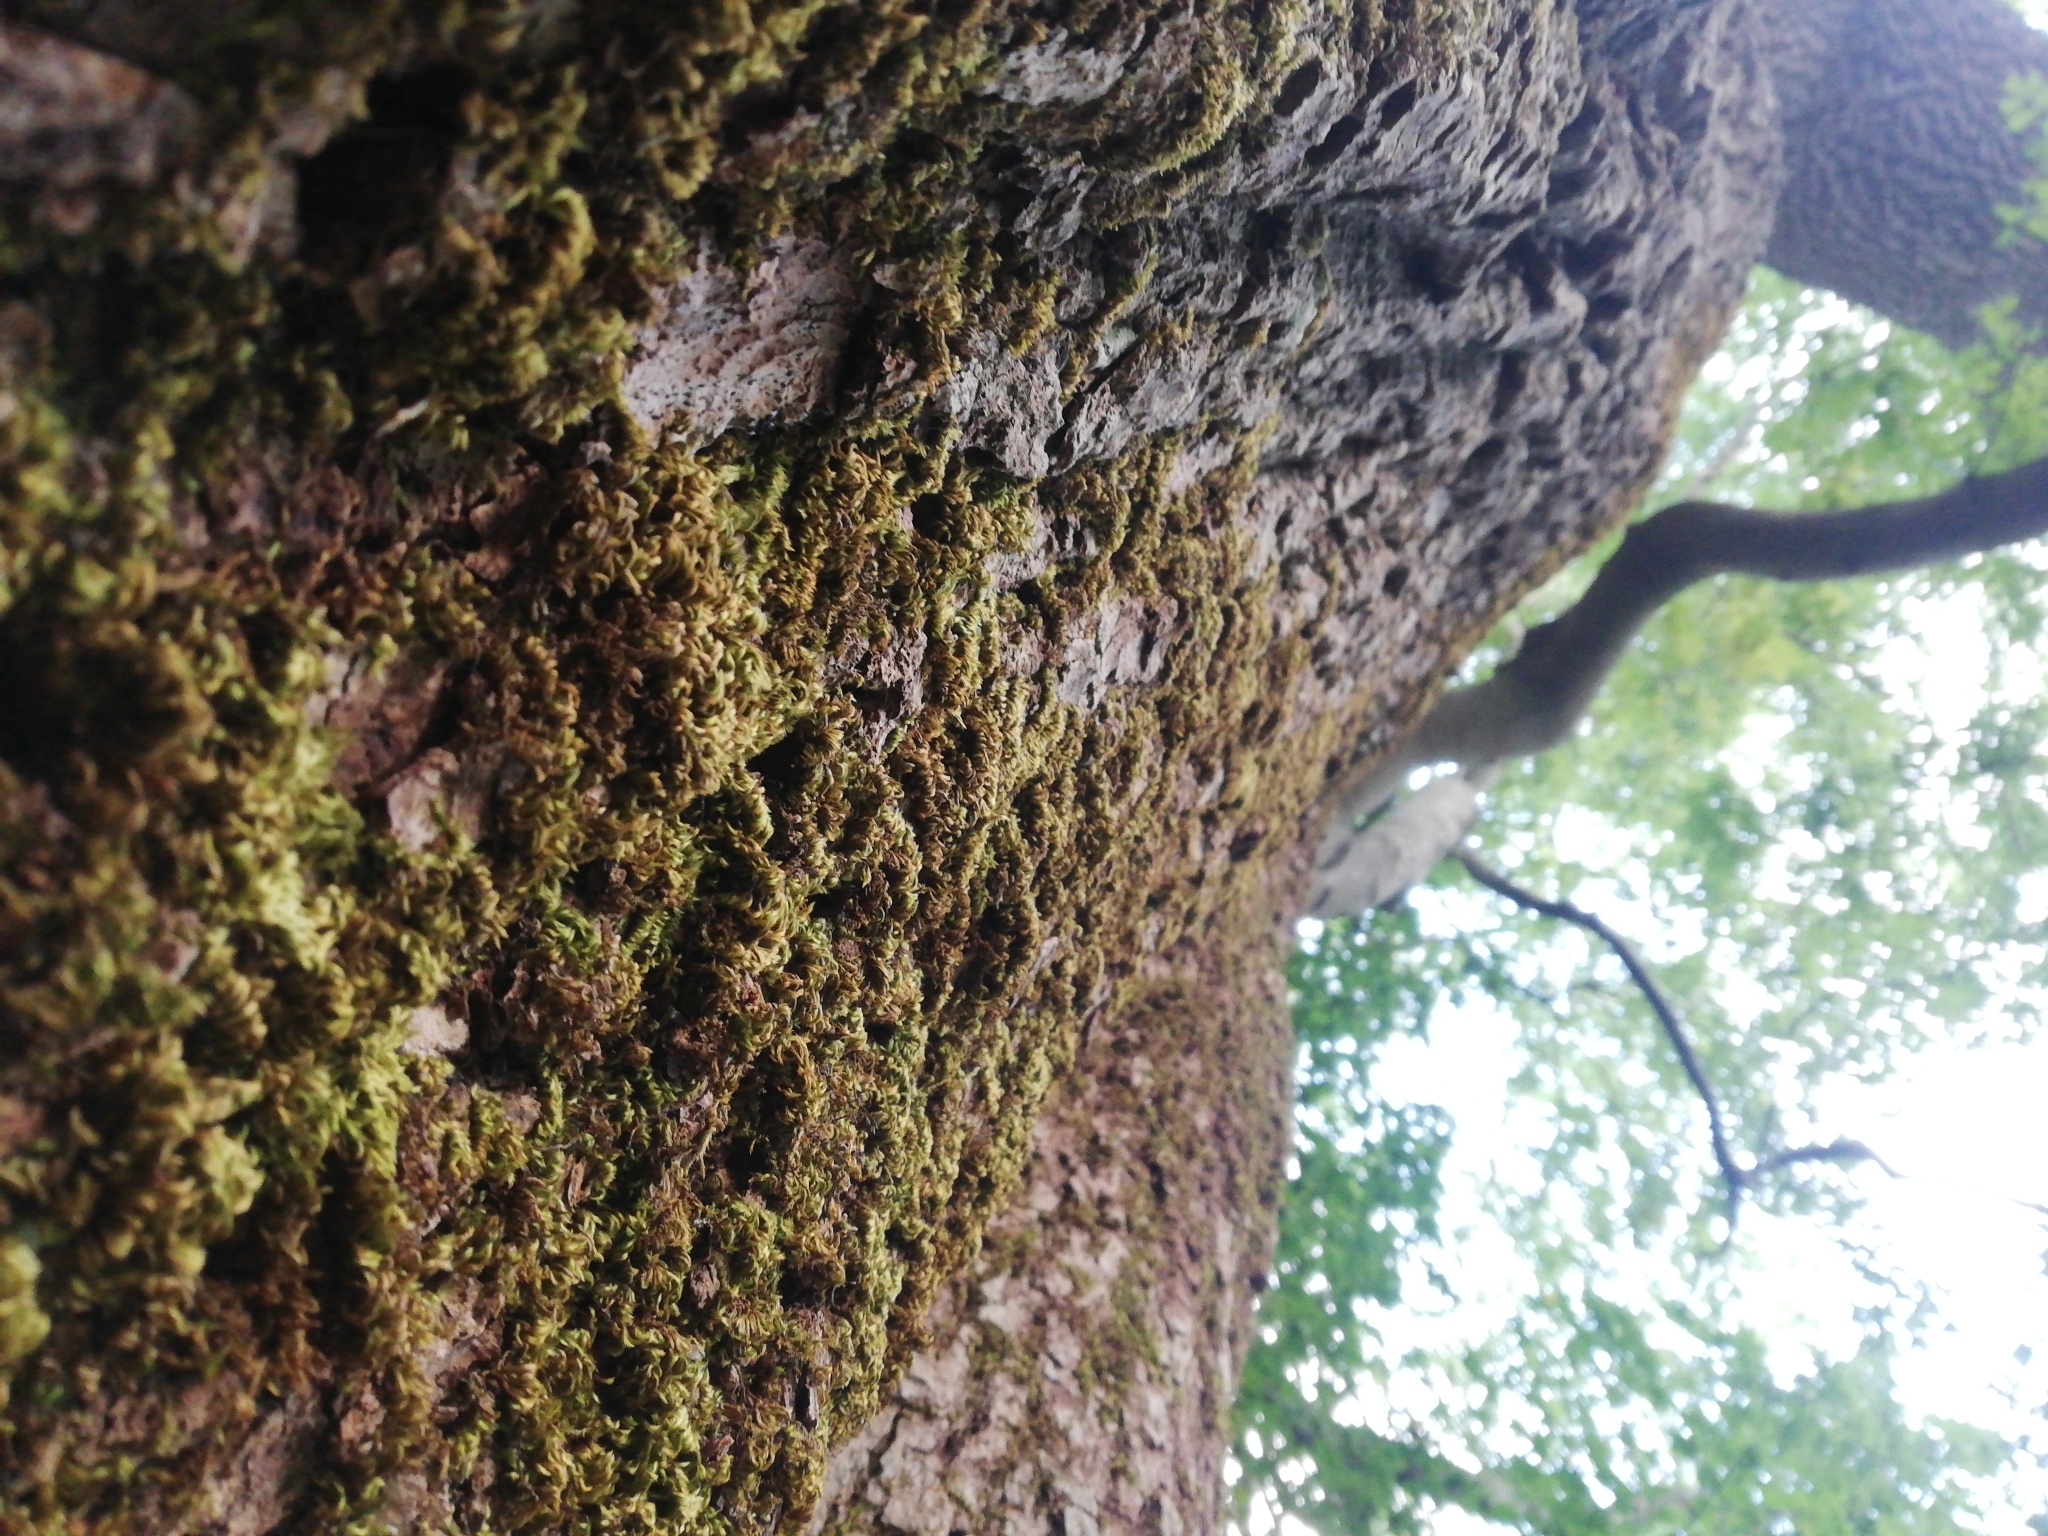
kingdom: Plantae
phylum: Bryophyta
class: Bryopsida
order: Hypnales
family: Brachytheciaceae
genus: Homalothecium
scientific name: Homalothecium sericeum
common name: Silky wall feather-moss
